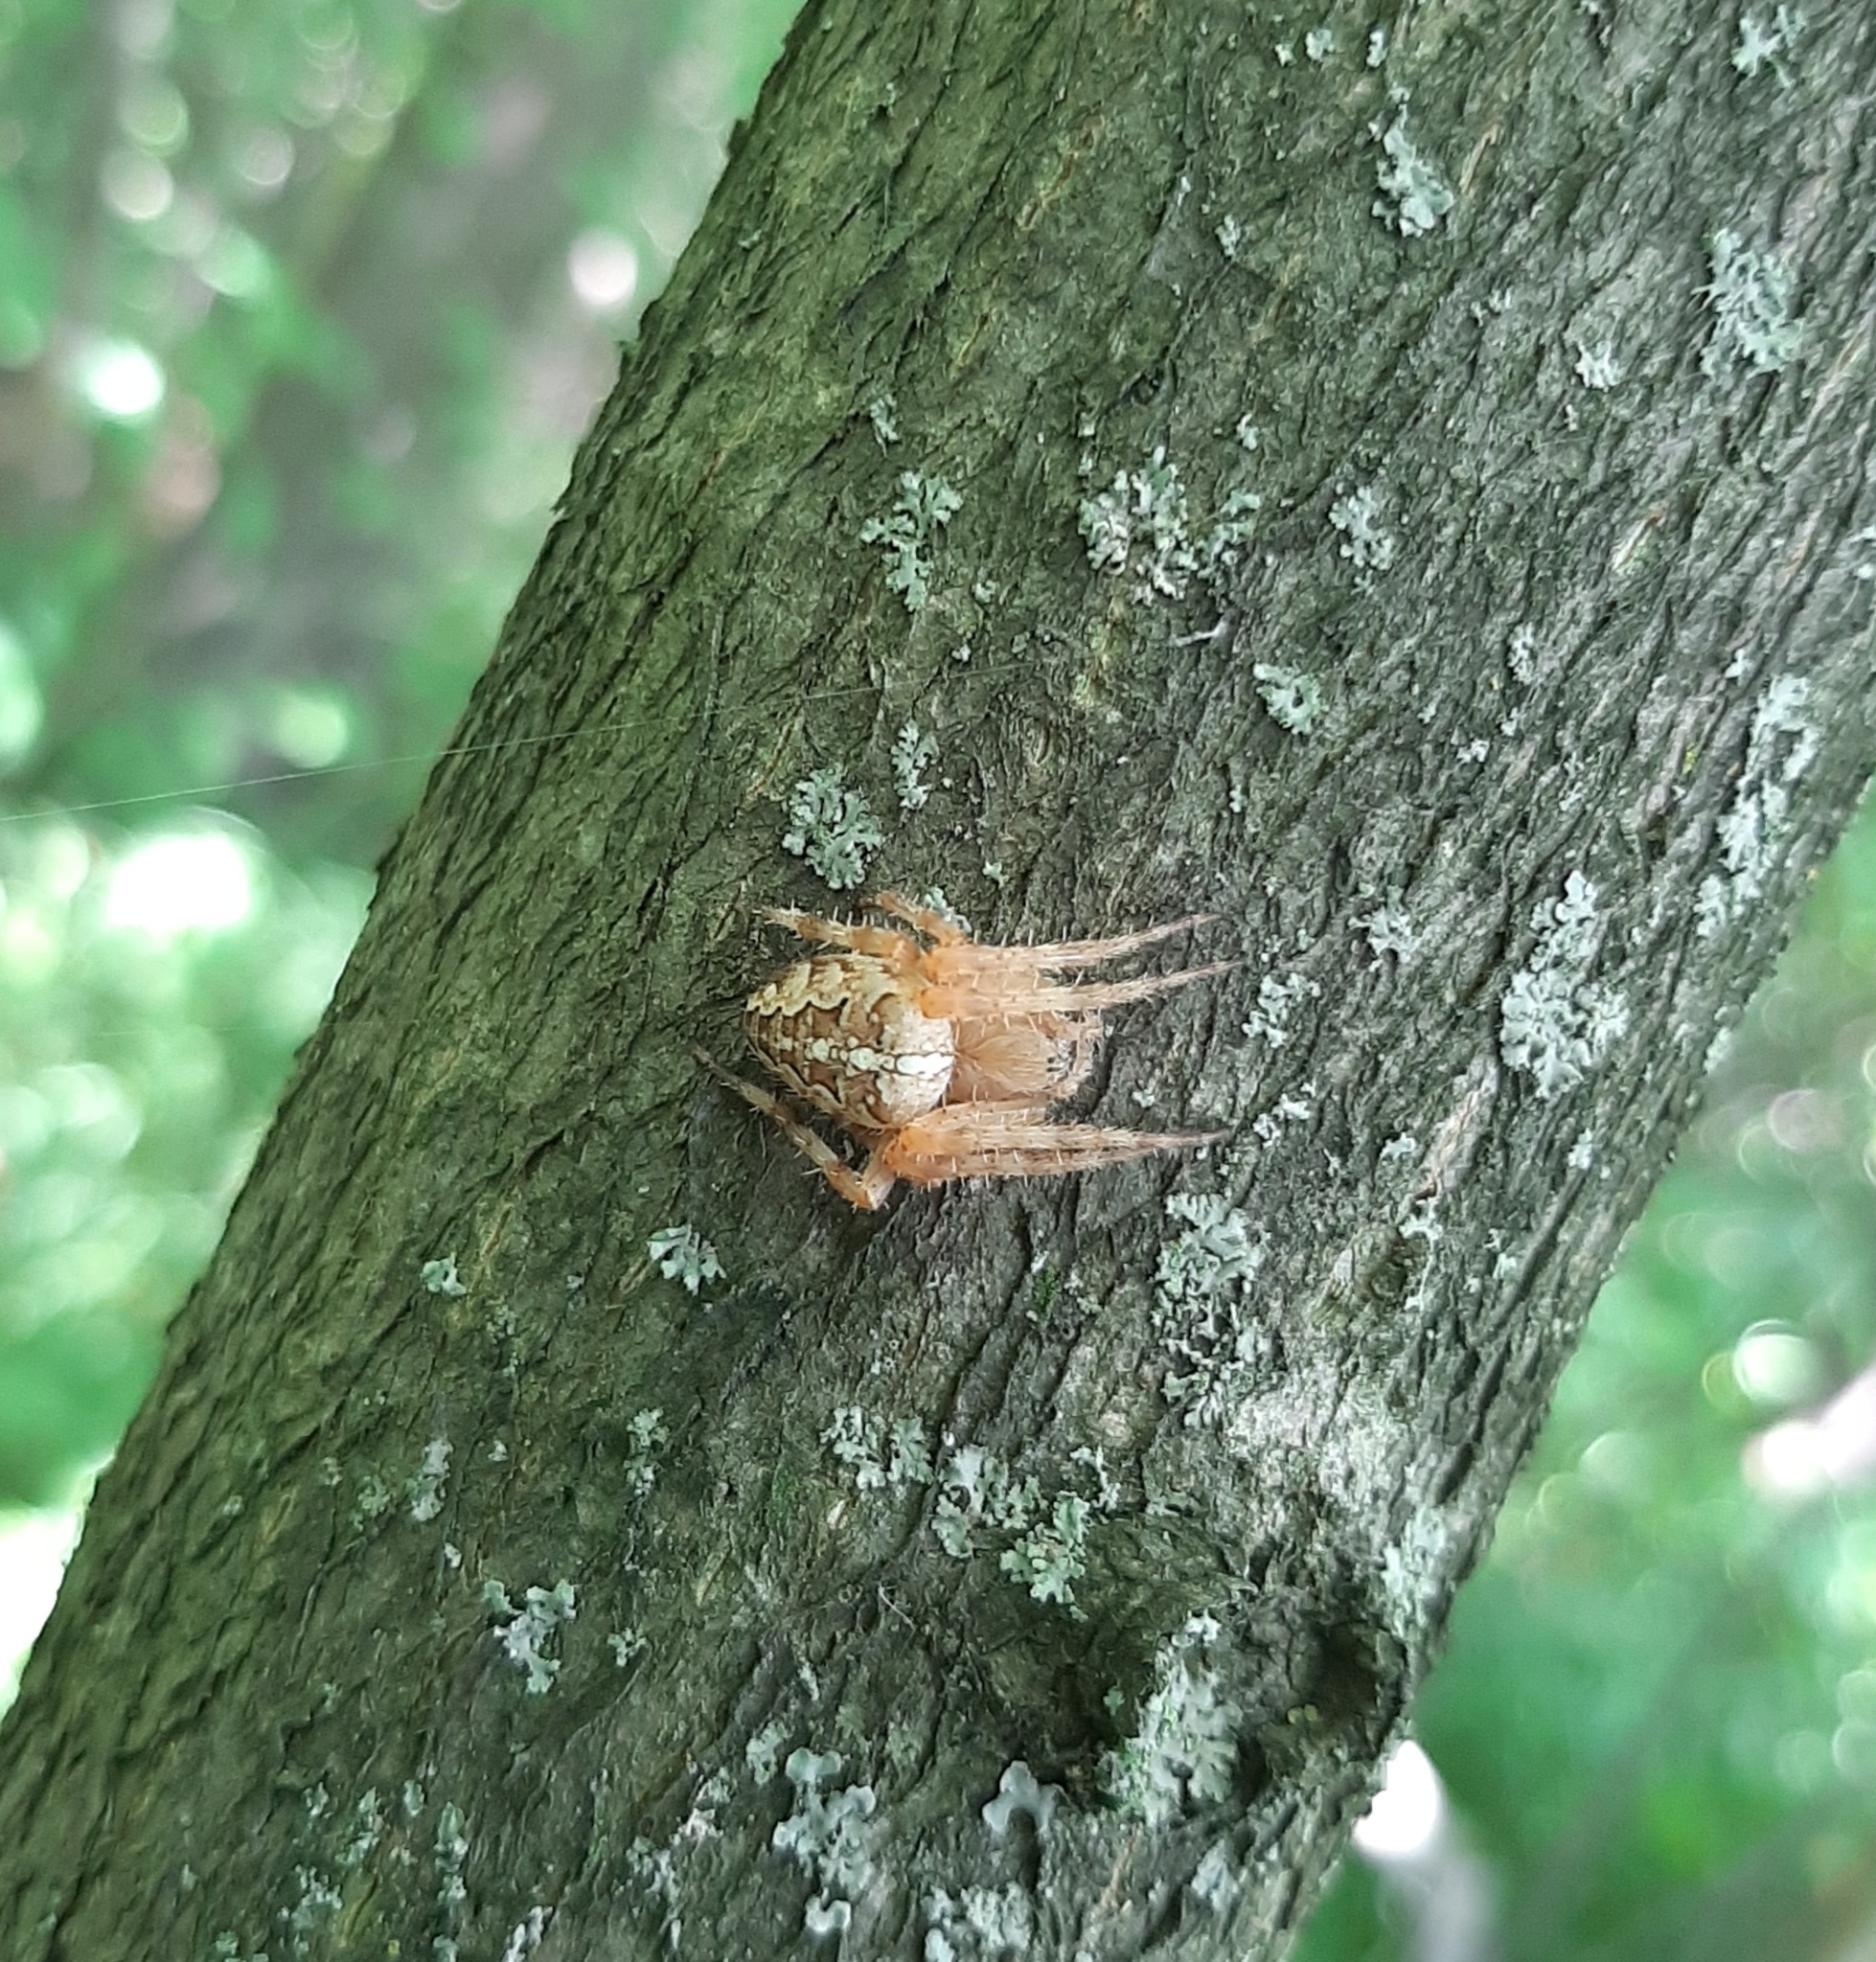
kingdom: Animalia
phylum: Arthropoda
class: Arachnida
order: Araneae
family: Araneidae
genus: Araneus
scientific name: Araneus diadematus
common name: Cross orbweaver
